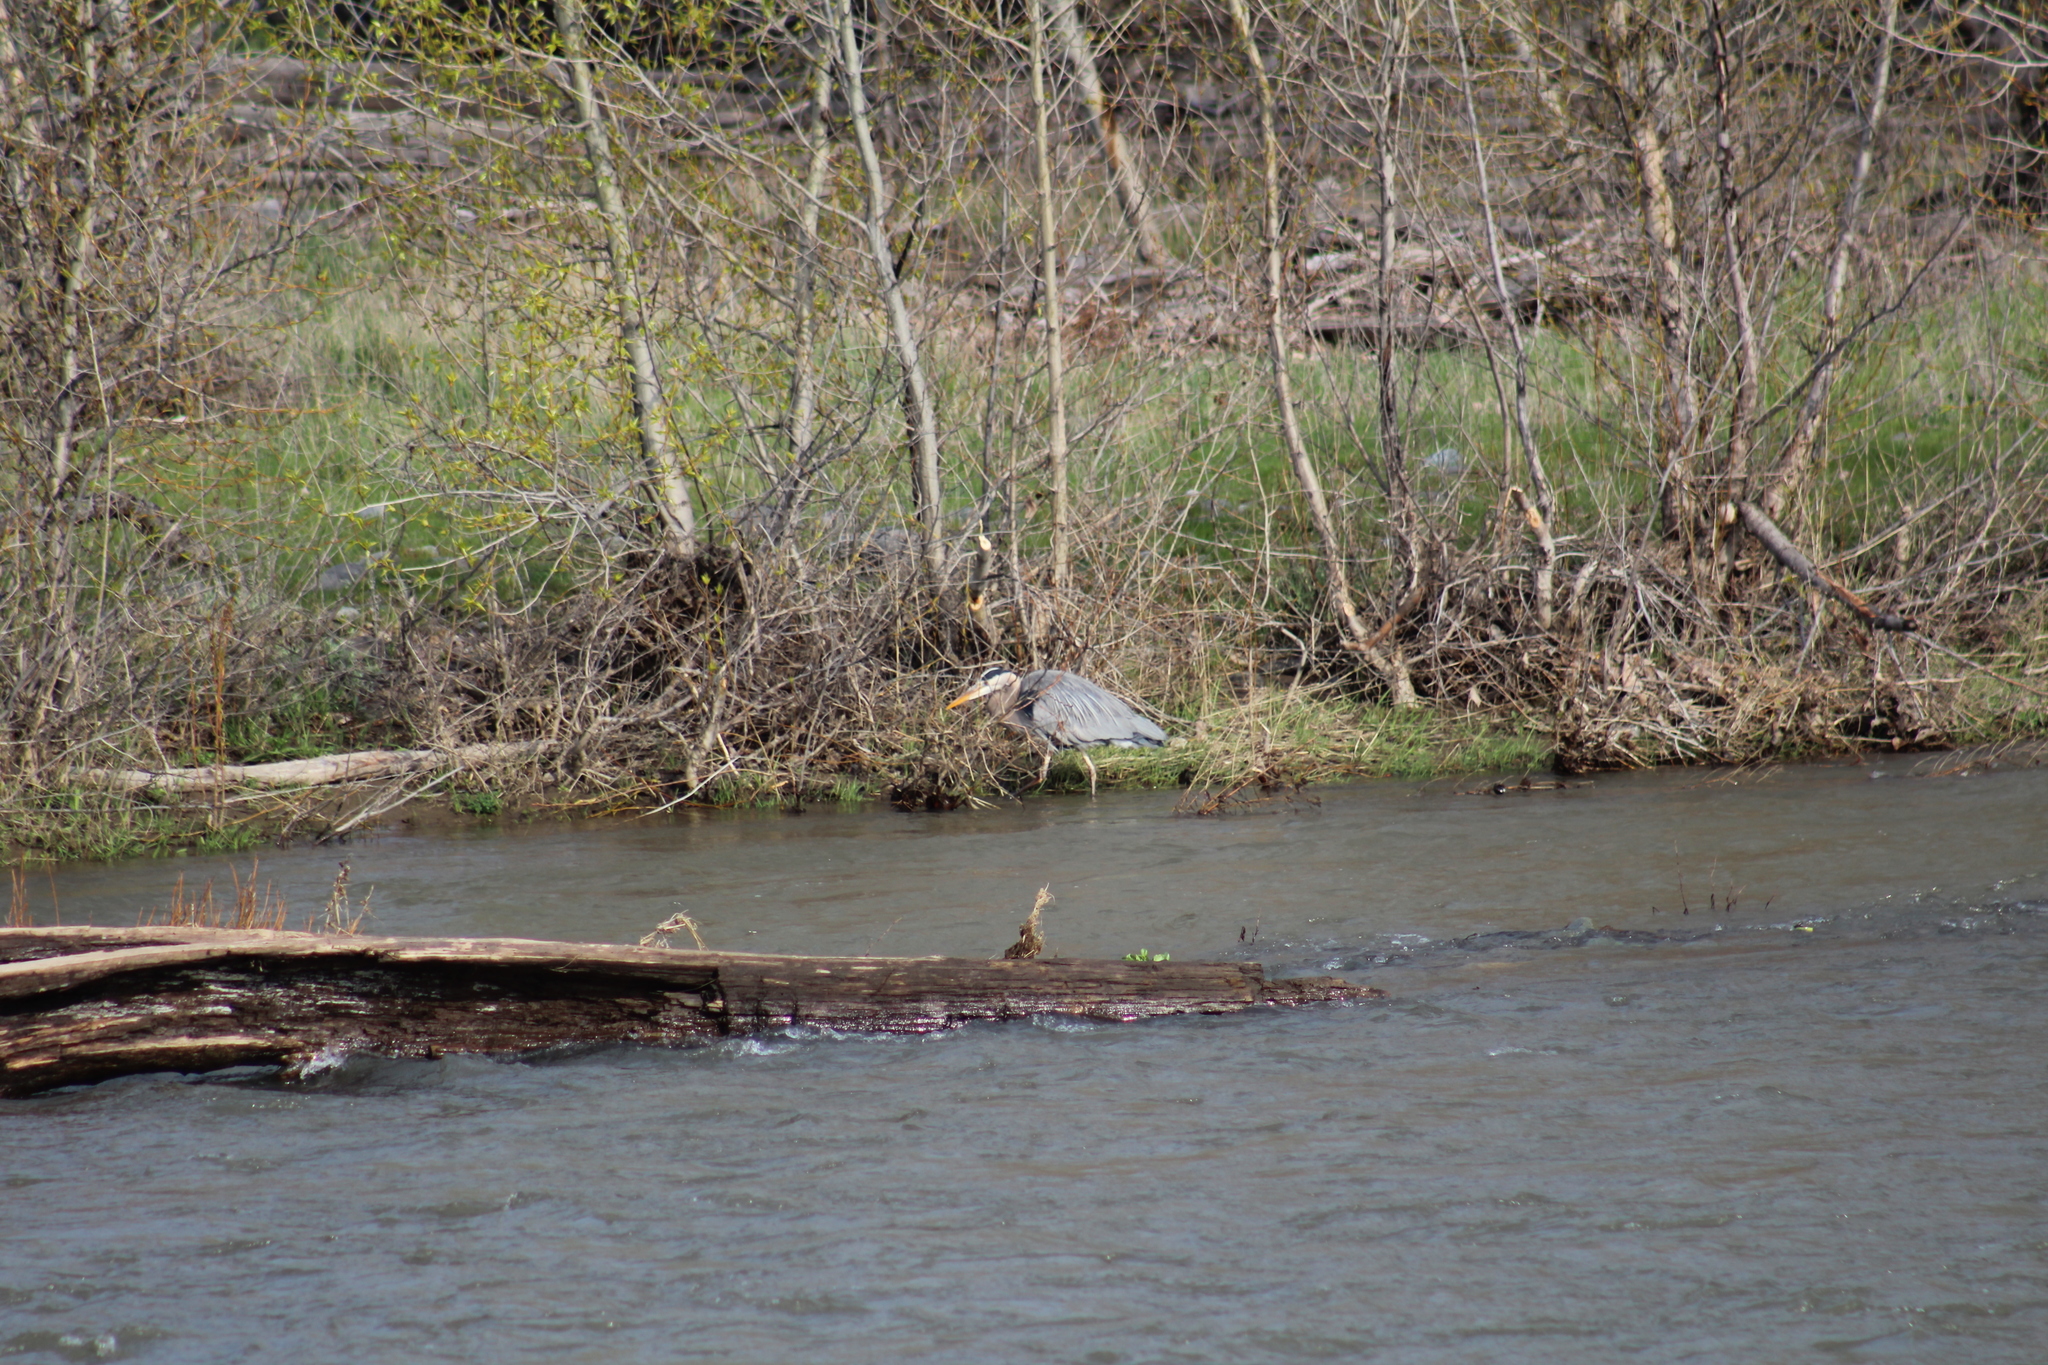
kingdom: Animalia
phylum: Chordata
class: Aves
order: Pelecaniformes
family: Ardeidae
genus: Ardea
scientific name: Ardea herodias
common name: Great blue heron
